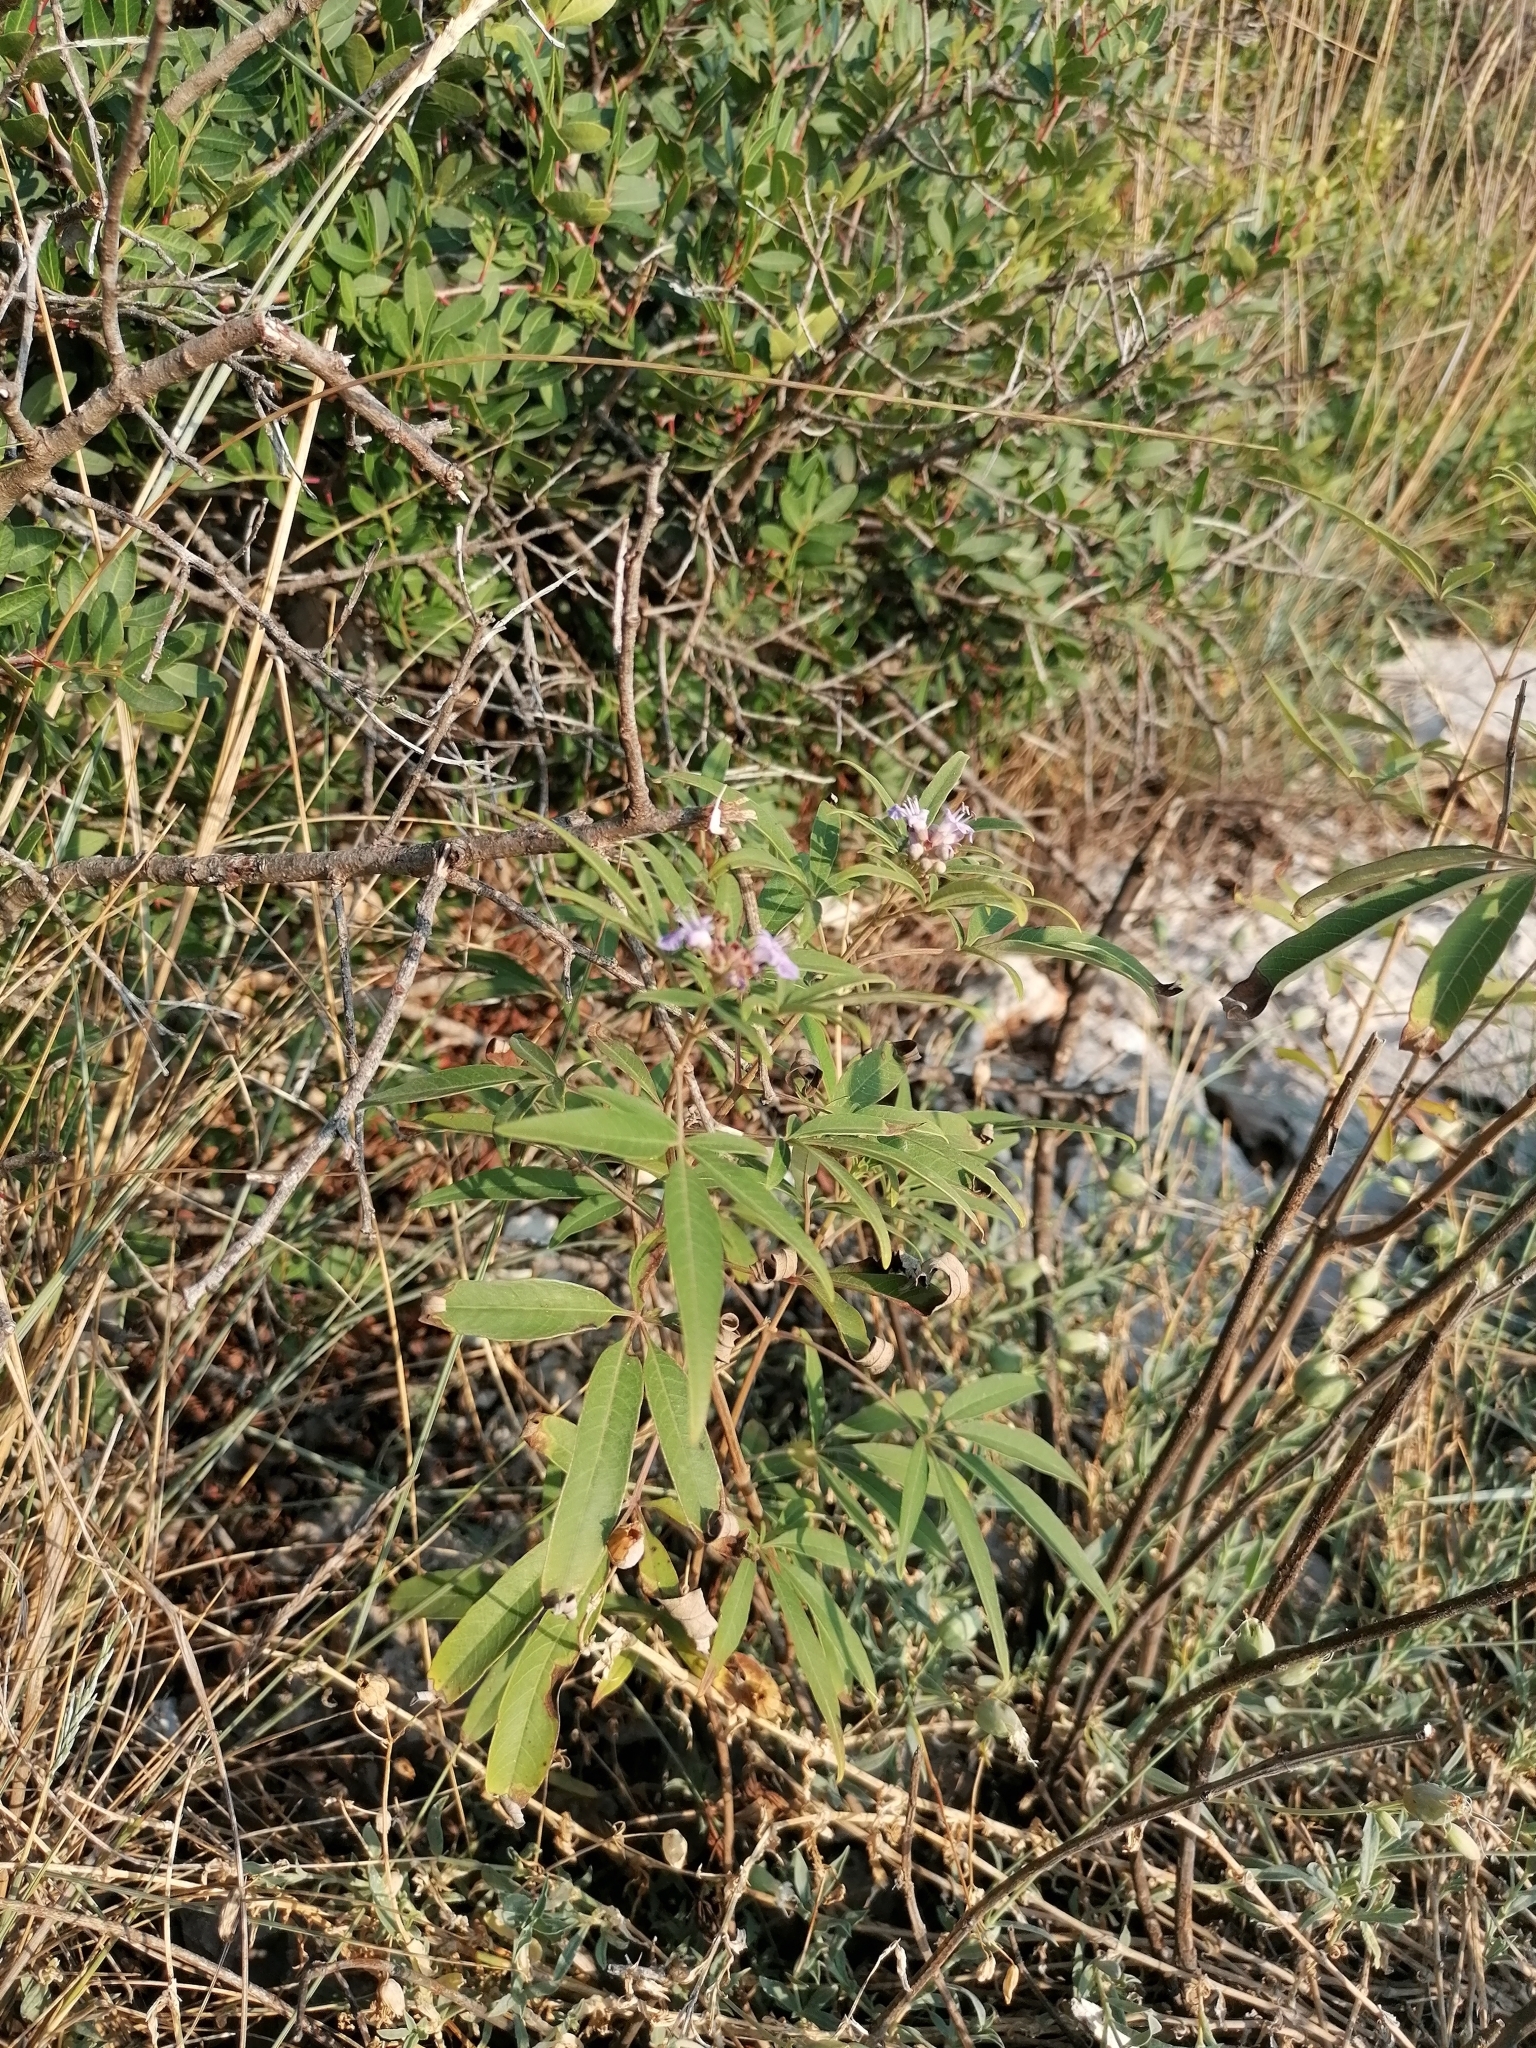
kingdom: Plantae
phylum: Tracheophyta
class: Magnoliopsida
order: Lamiales
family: Lamiaceae
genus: Vitex
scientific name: Vitex agnus-castus
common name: Chasteberry
